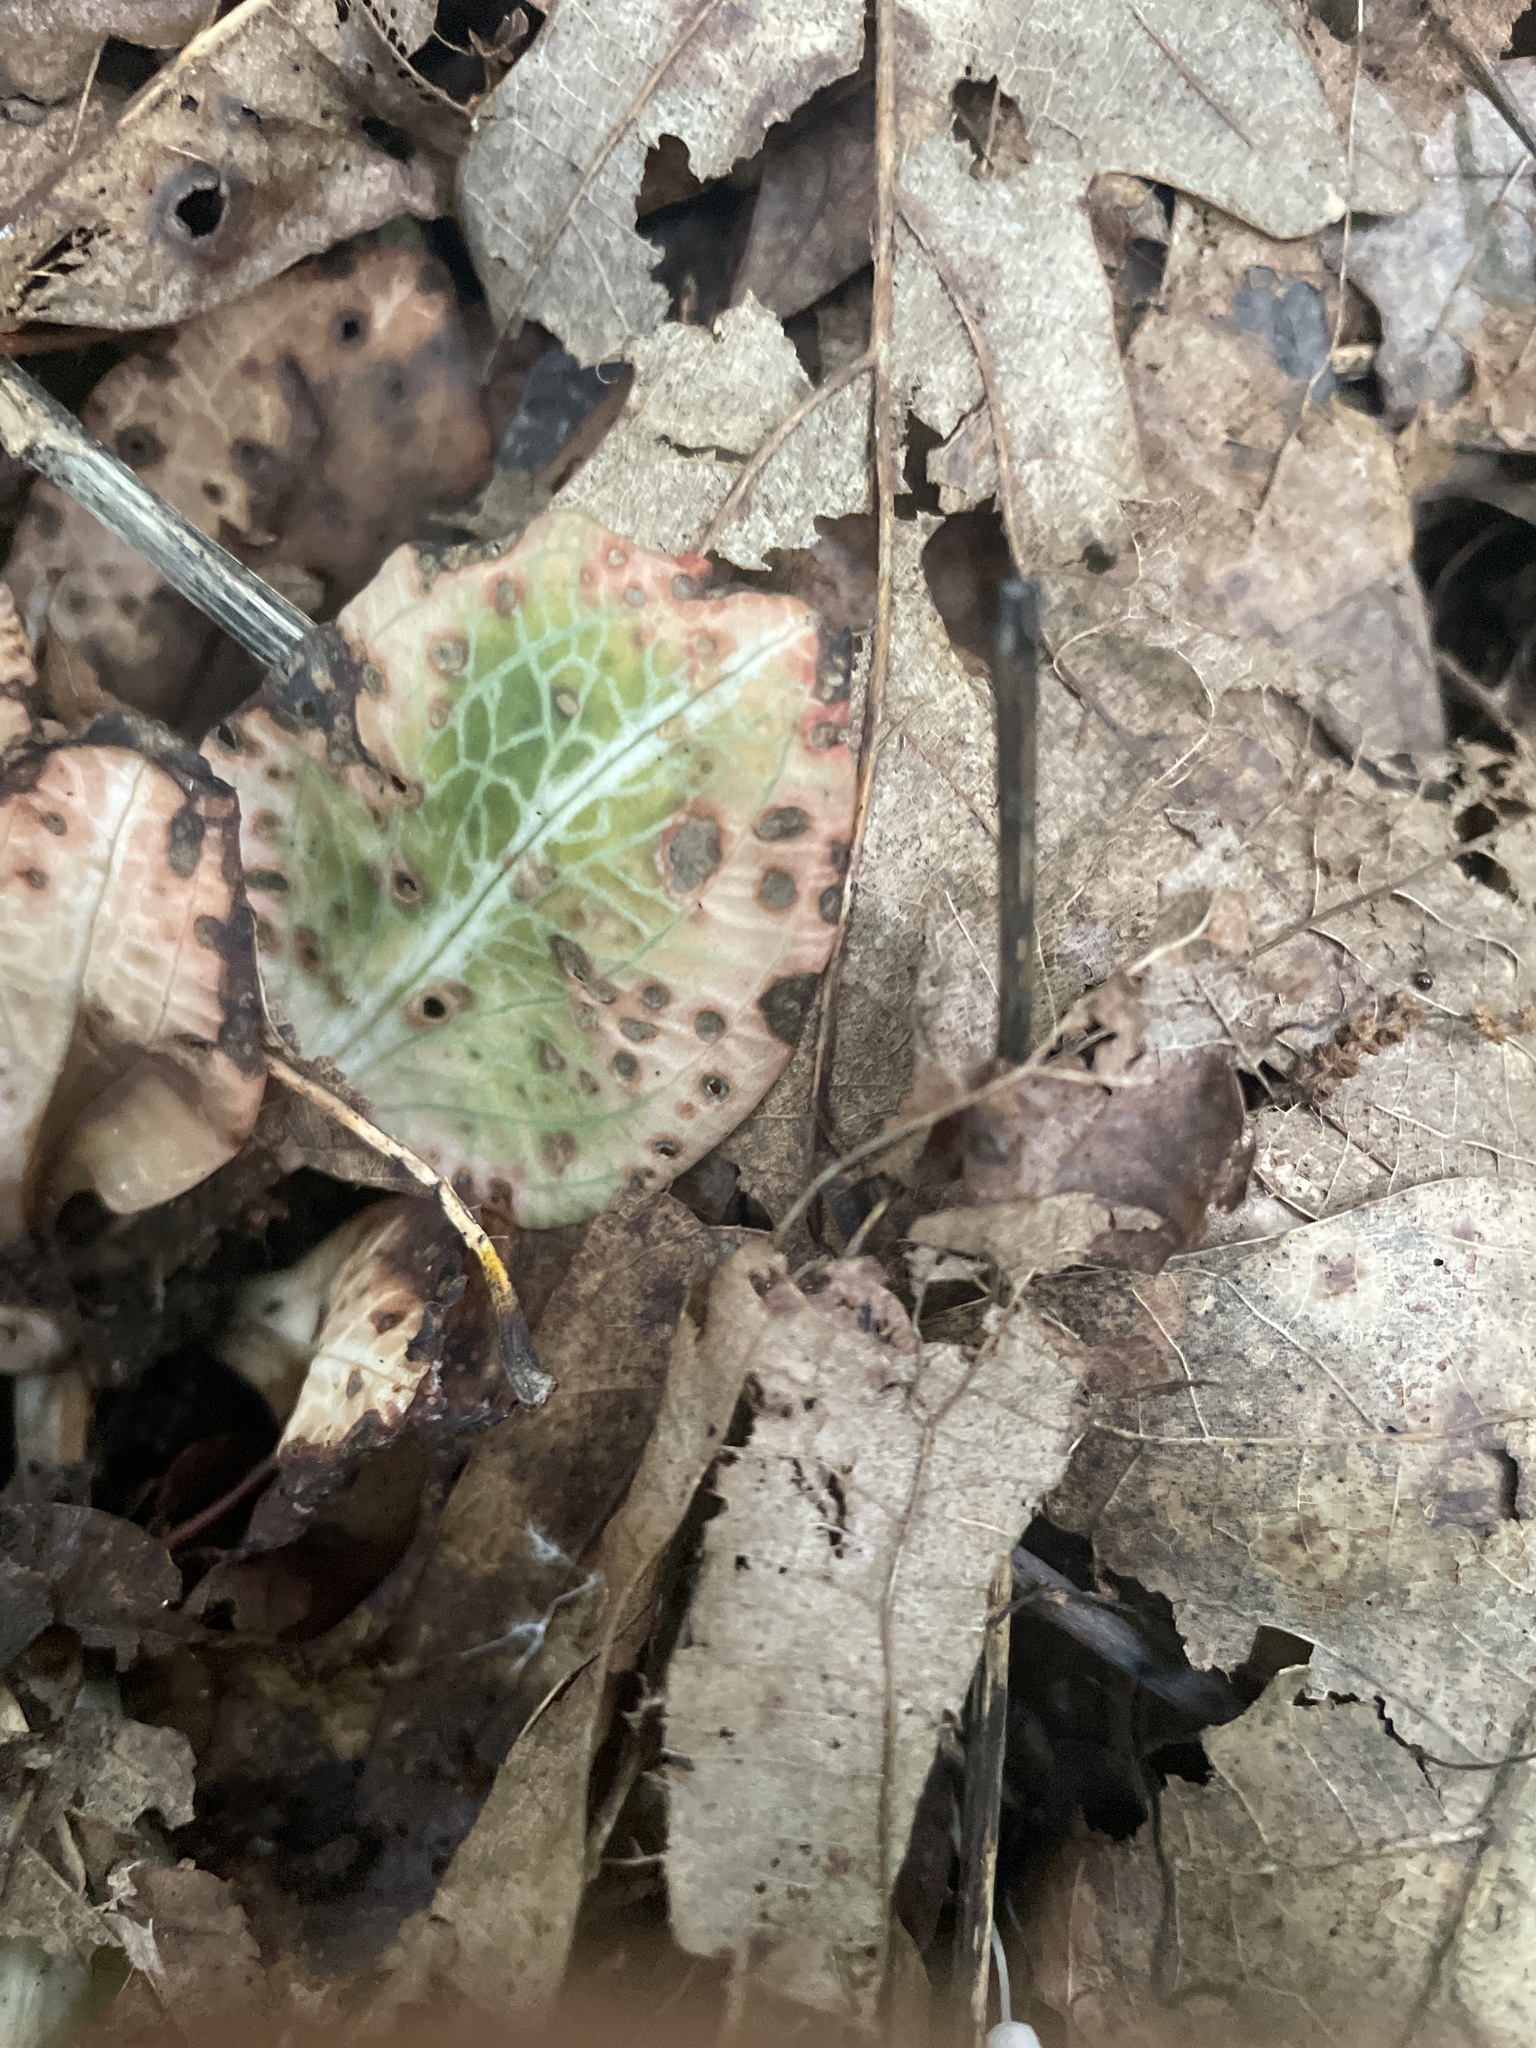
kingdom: Plantae
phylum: Tracheophyta
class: Liliopsida
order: Asparagales
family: Orchidaceae
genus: Goodyera
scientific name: Goodyera pubescens
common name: Downy rattlesnake-plantain
